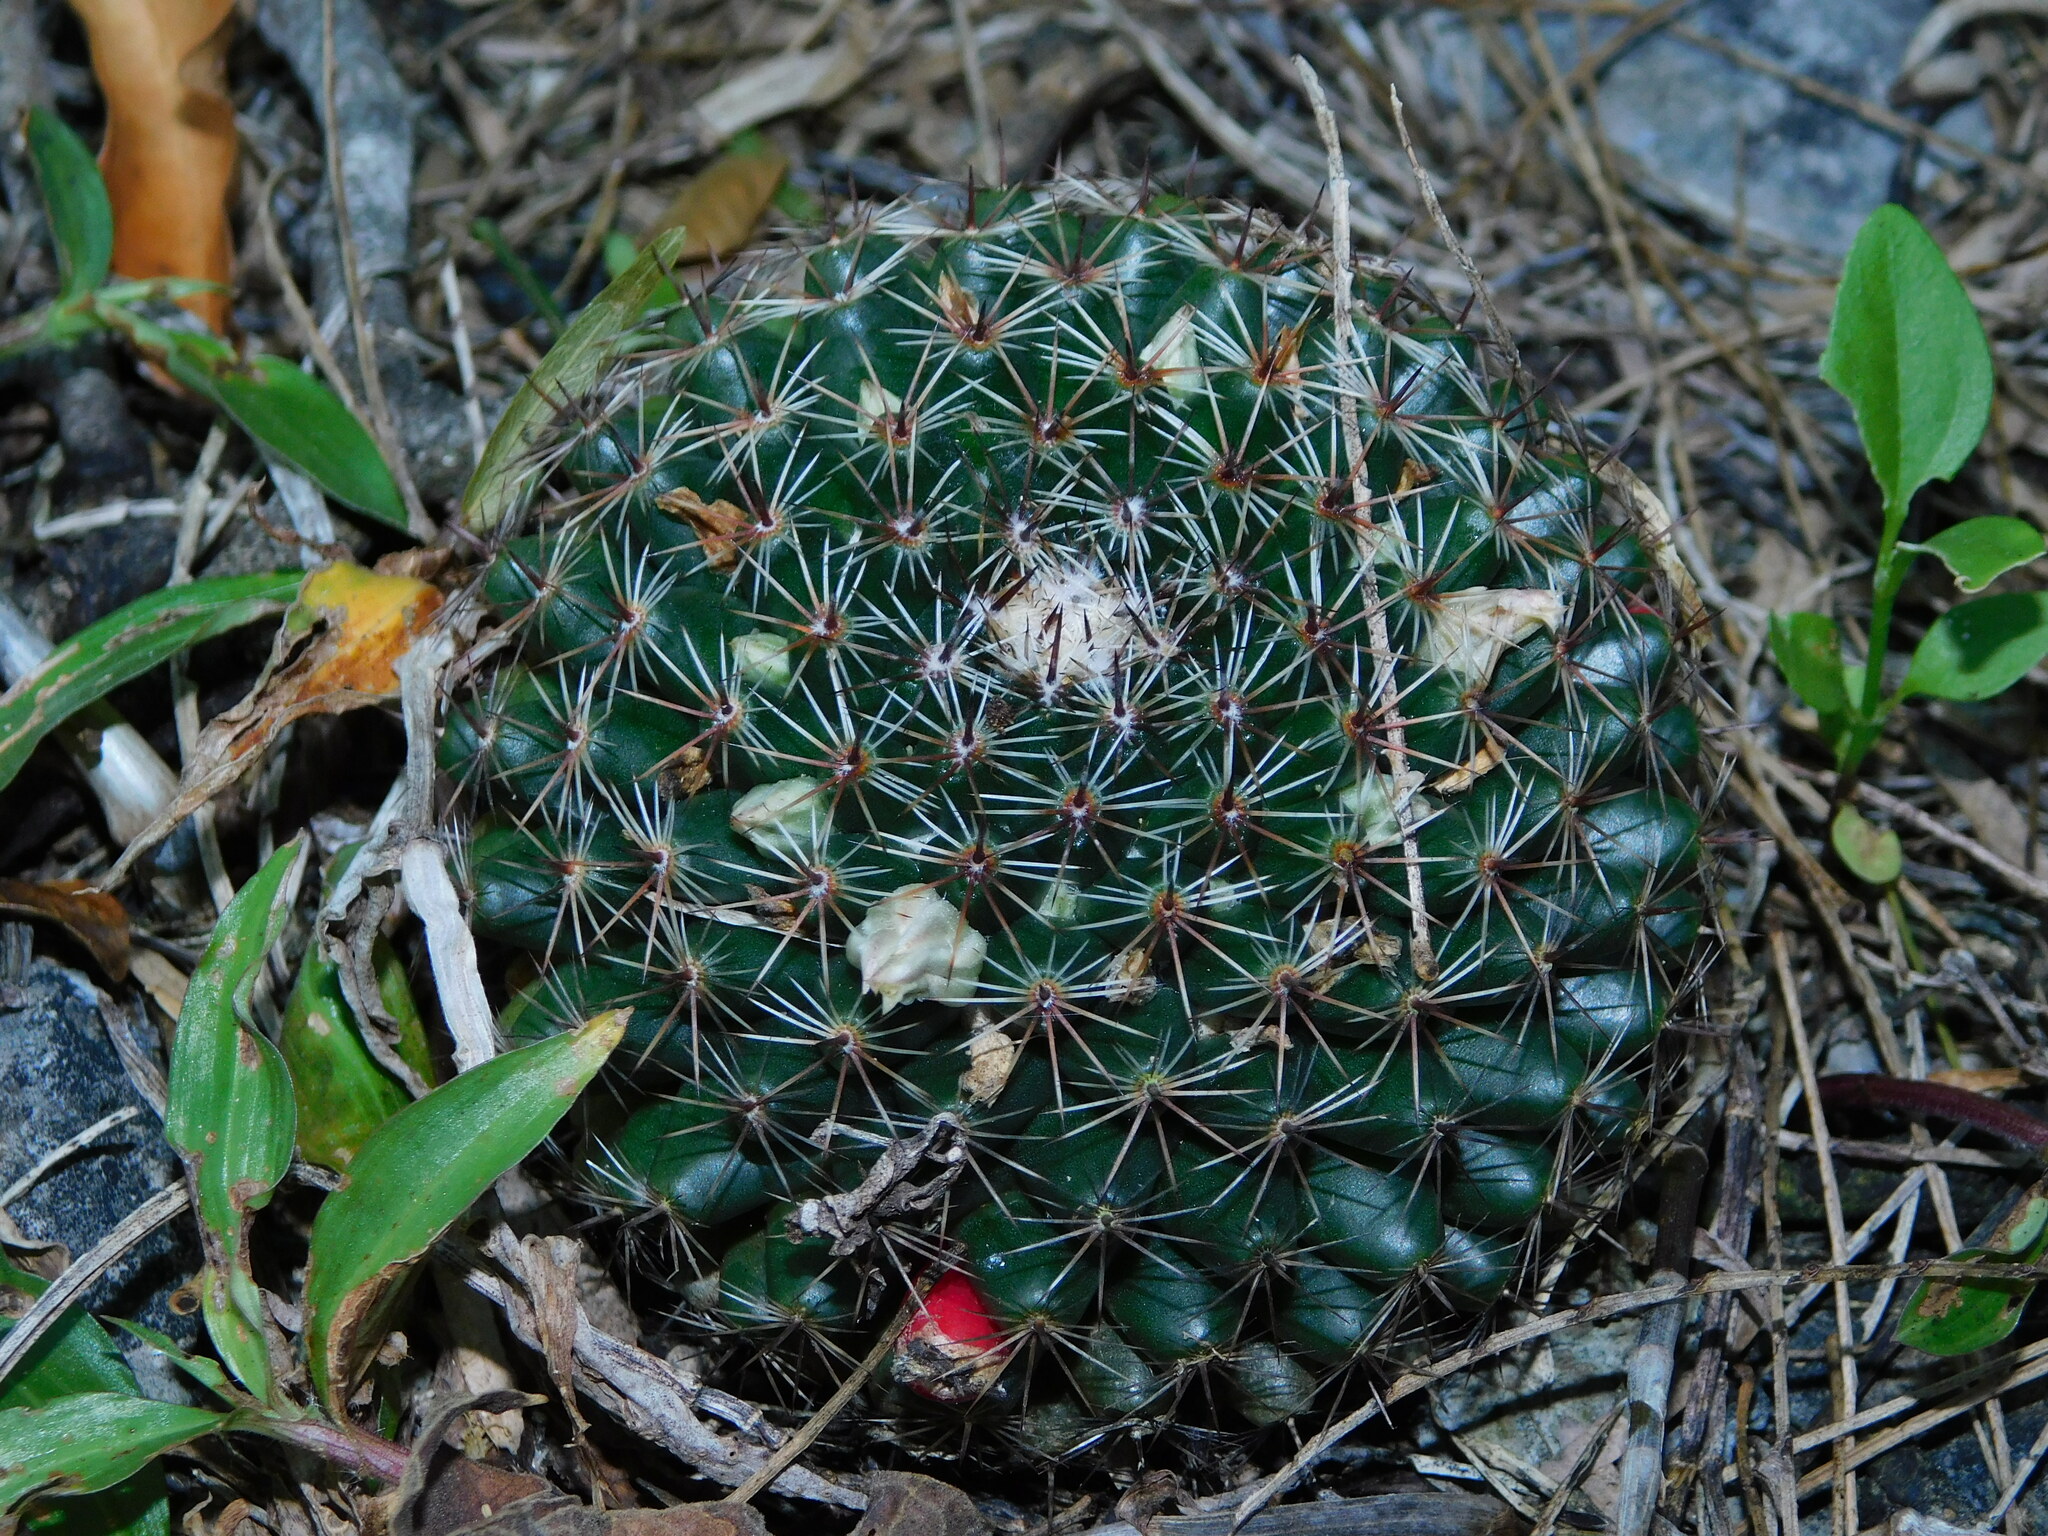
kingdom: Plantae
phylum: Tracheophyta
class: Magnoliopsida
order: Caryophyllales
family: Cactaceae
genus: Mammillaria
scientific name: Mammillaria heyderi
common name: Little nipple cactus
